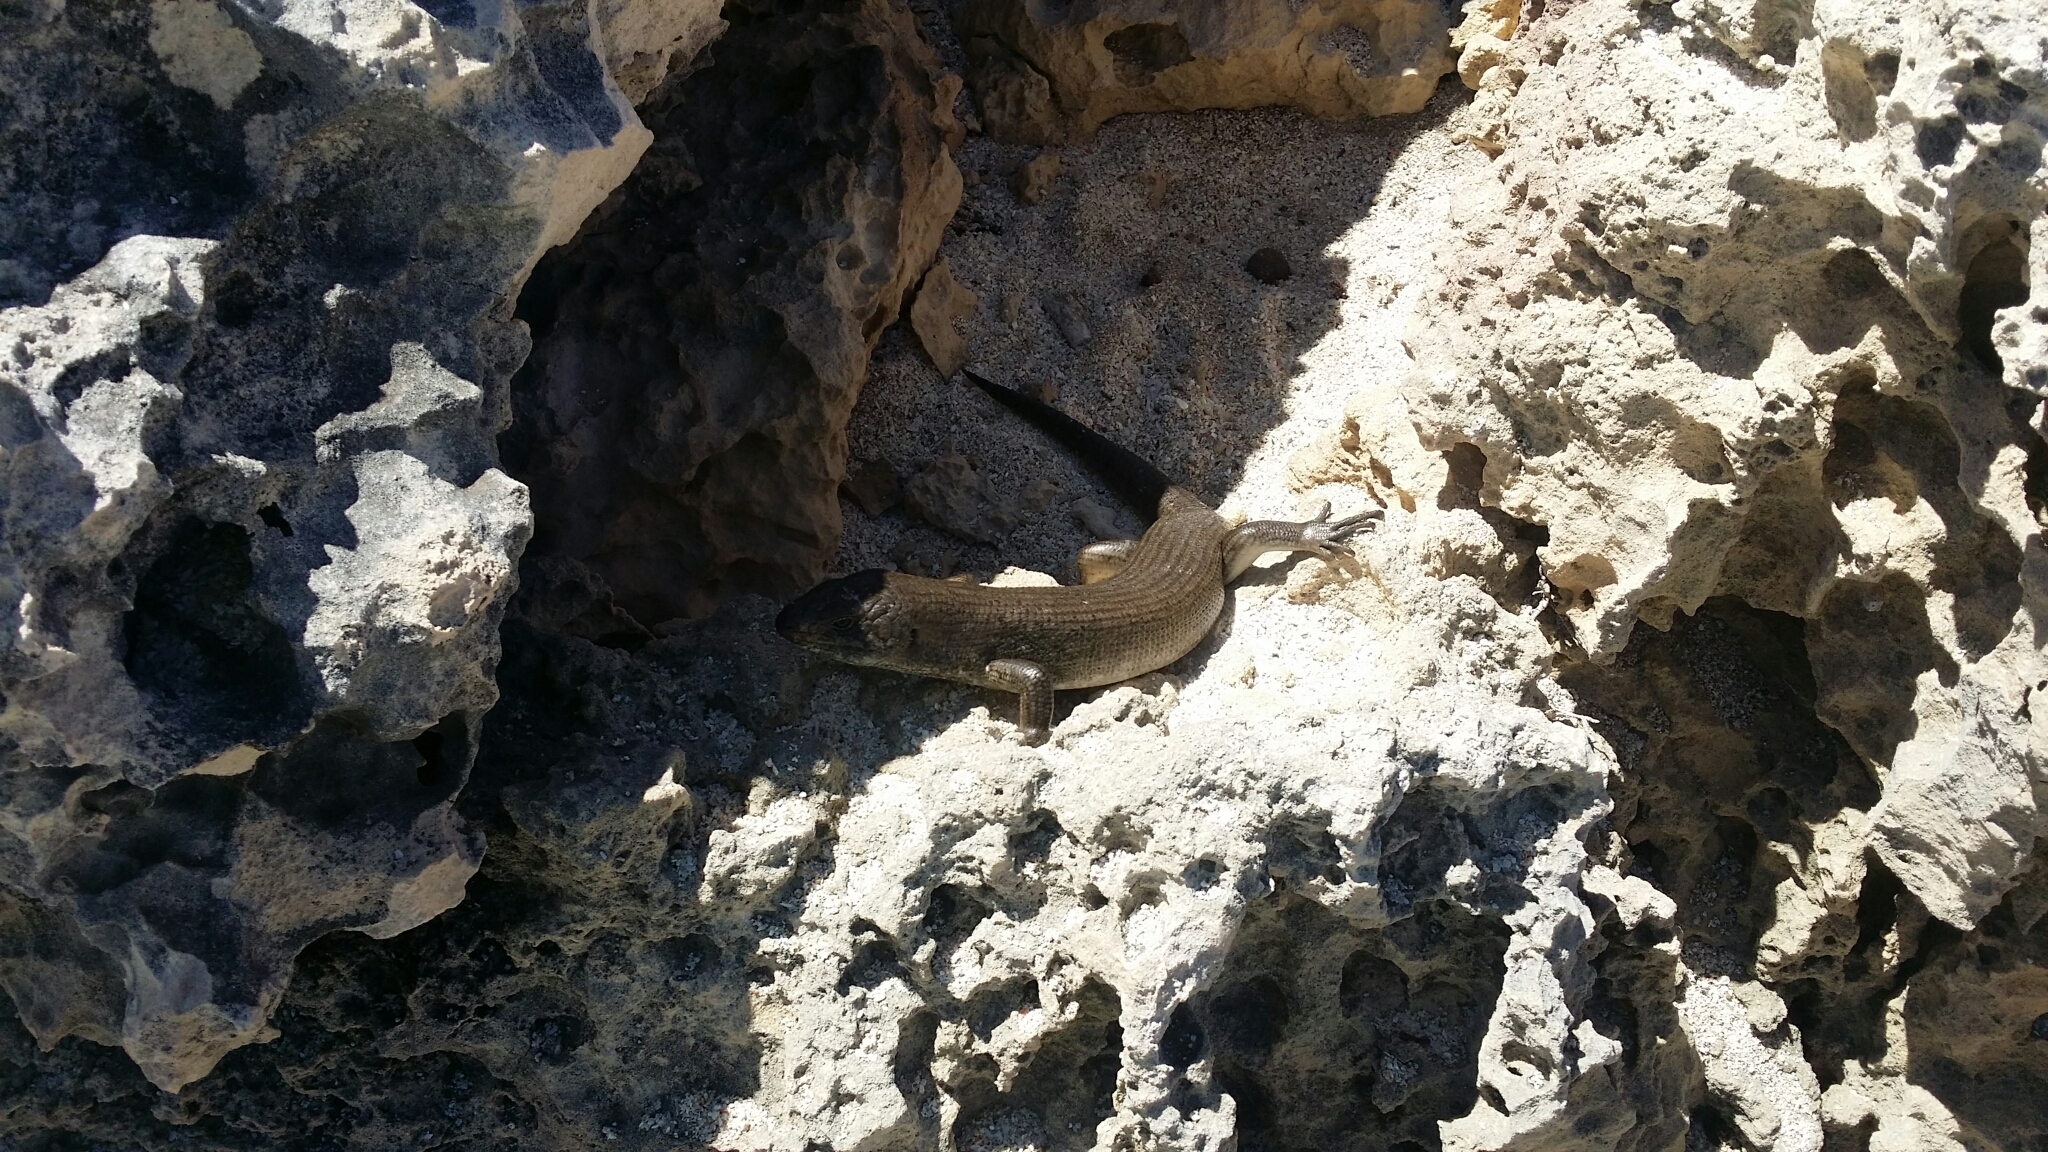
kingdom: Animalia
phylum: Chordata
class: Squamata
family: Scincidae
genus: Egernia
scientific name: Egernia kingii
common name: King's skink
